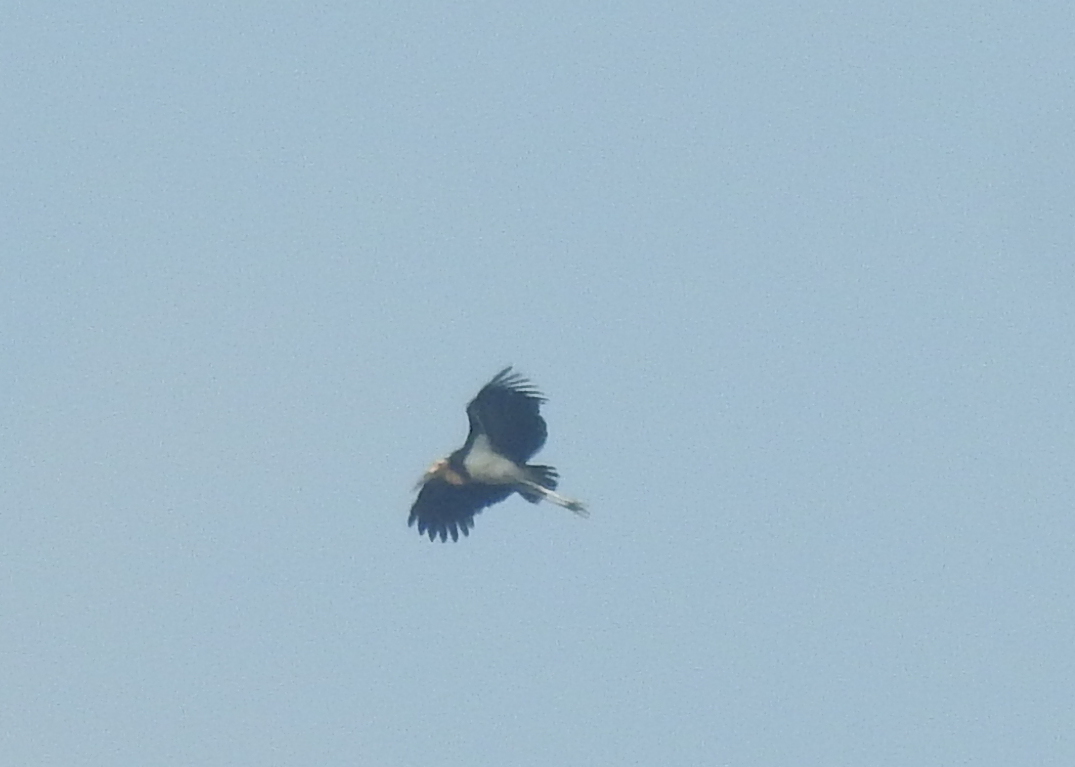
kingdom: Animalia
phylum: Chordata
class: Aves
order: Ciconiiformes
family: Ciconiidae
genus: Leptoptilos
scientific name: Leptoptilos javanicus
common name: Lesser adjutant
